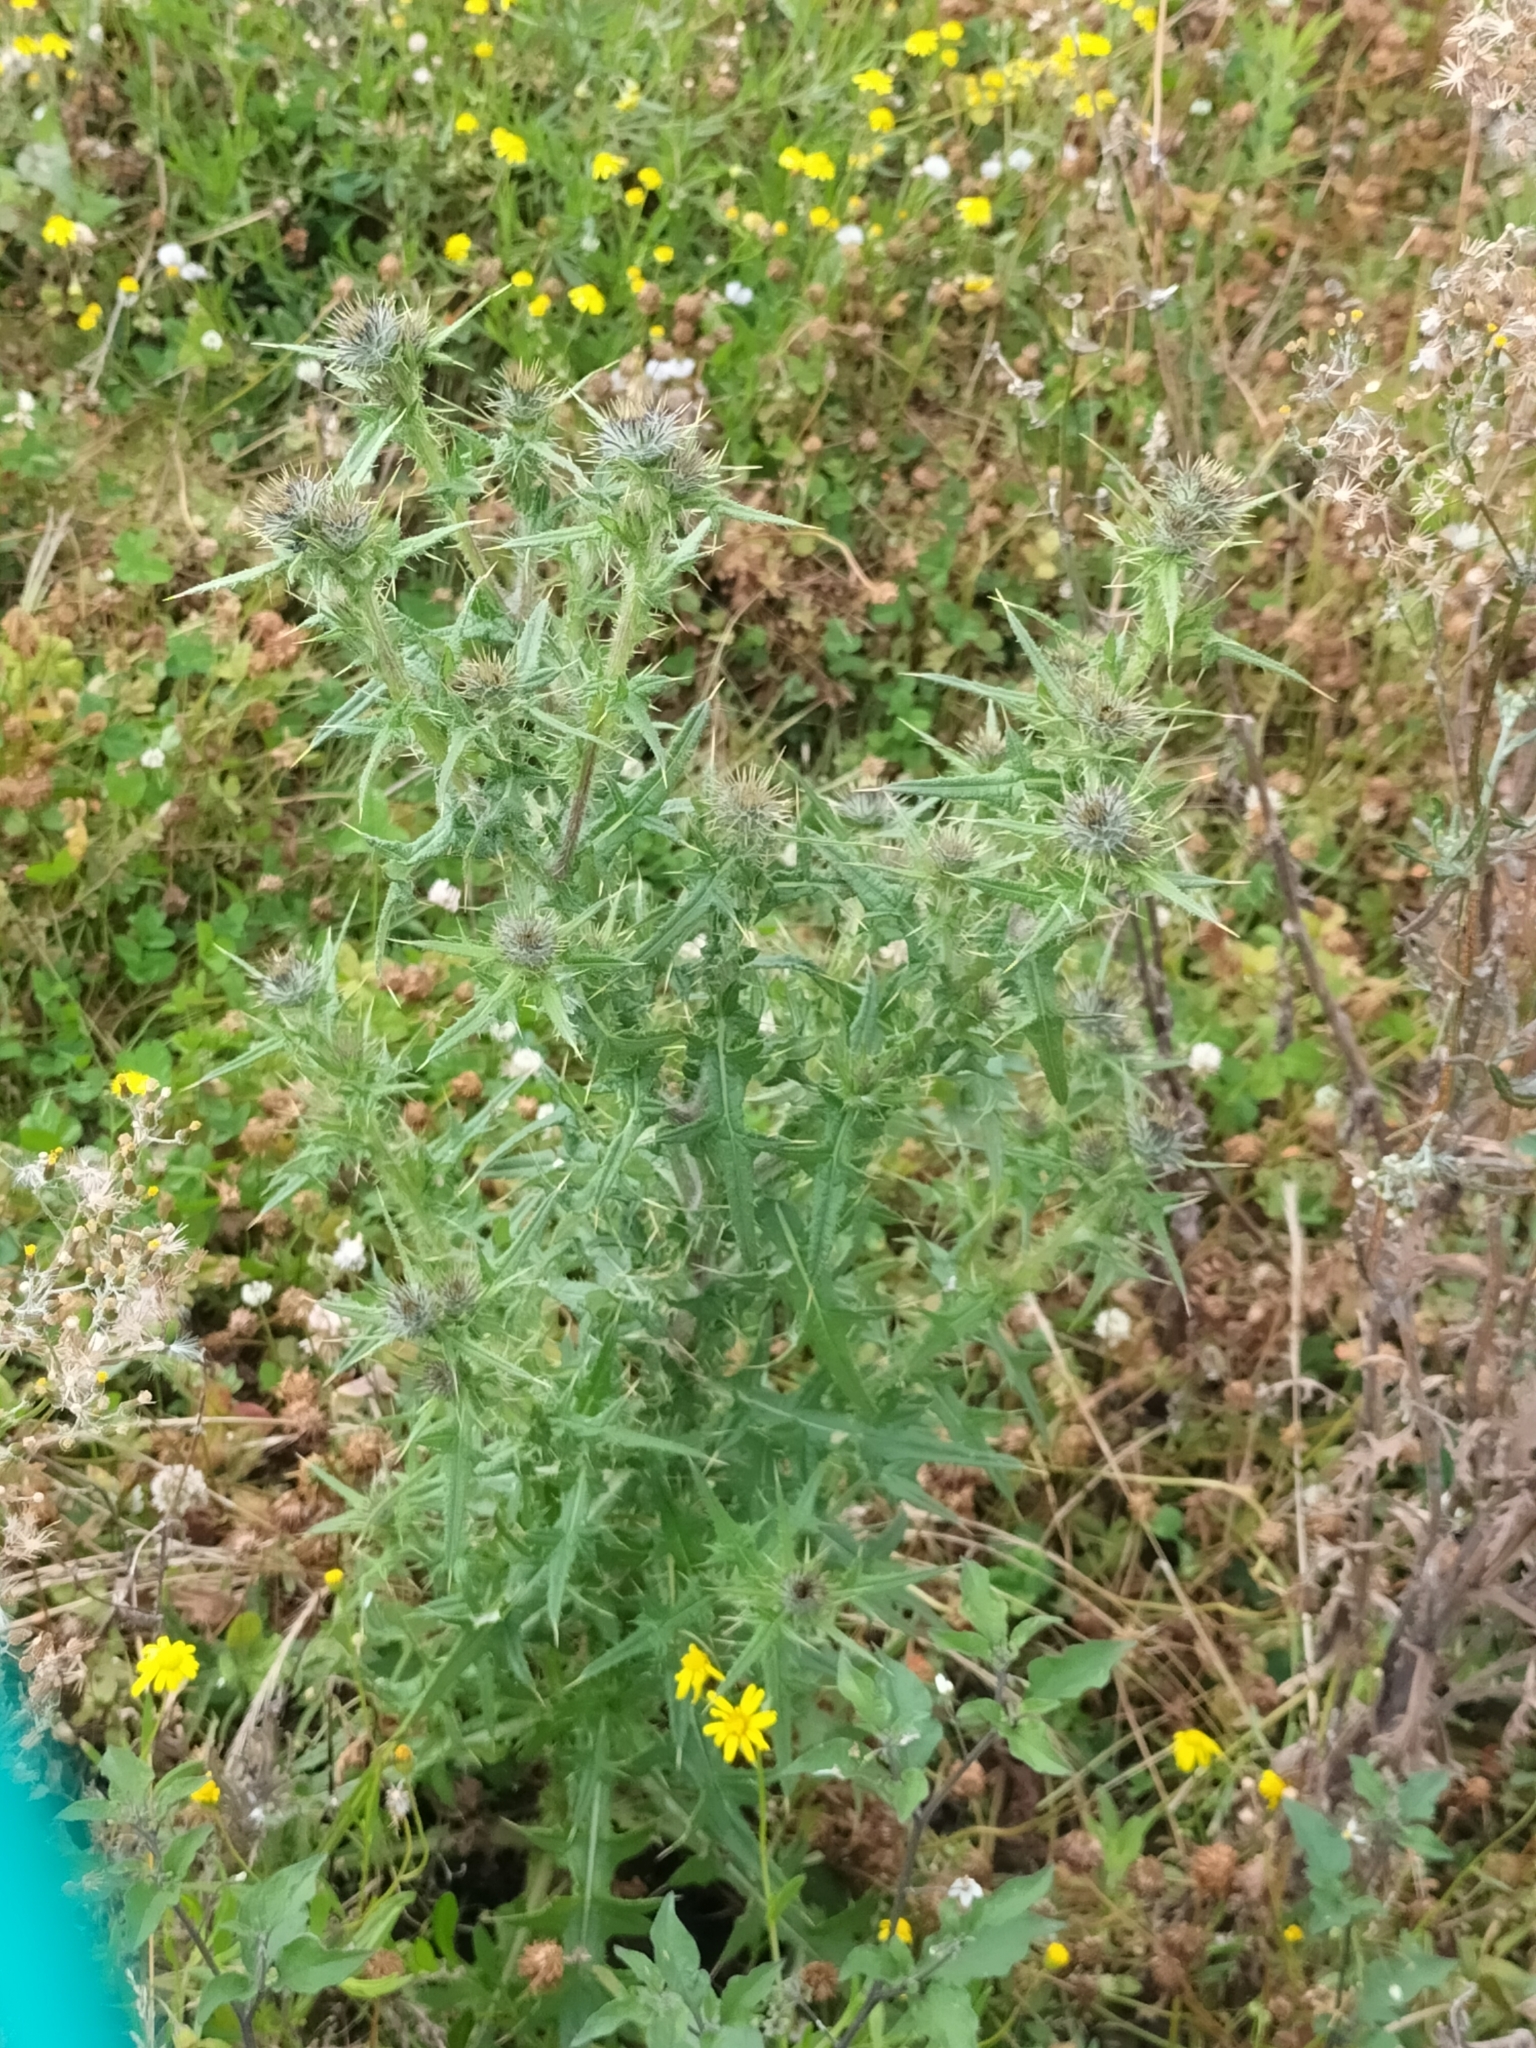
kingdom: Plantae
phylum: Tracheophyta
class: Magnoliopsida
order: Asterales
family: Asteraceae
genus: Cirsium
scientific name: Cirsium vulgare
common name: Bull thistle
